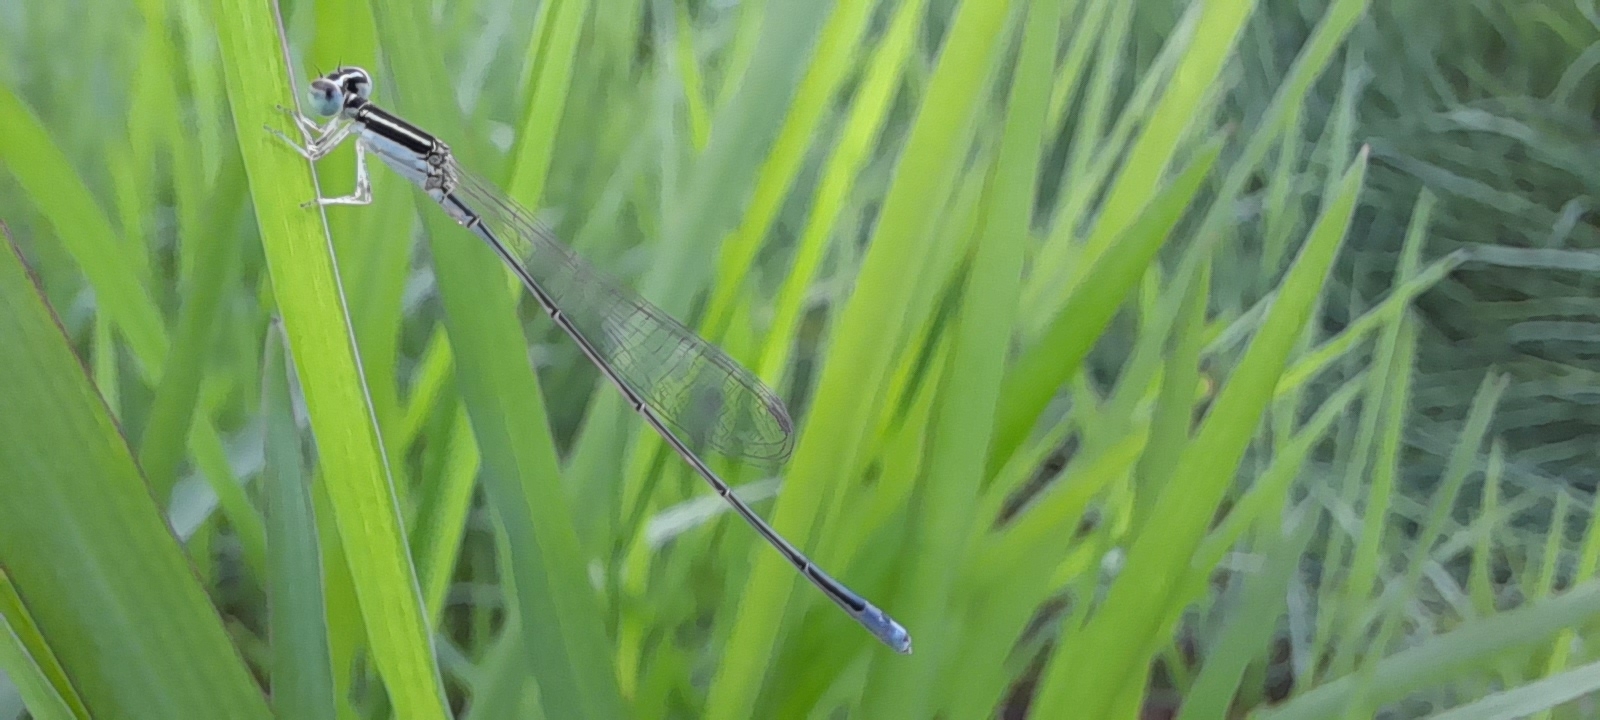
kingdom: Animalia
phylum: Arthropoda
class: Insecta
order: Odonata
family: Coenagrionidae
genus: Aciagrion
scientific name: Aciagrion occidentale
